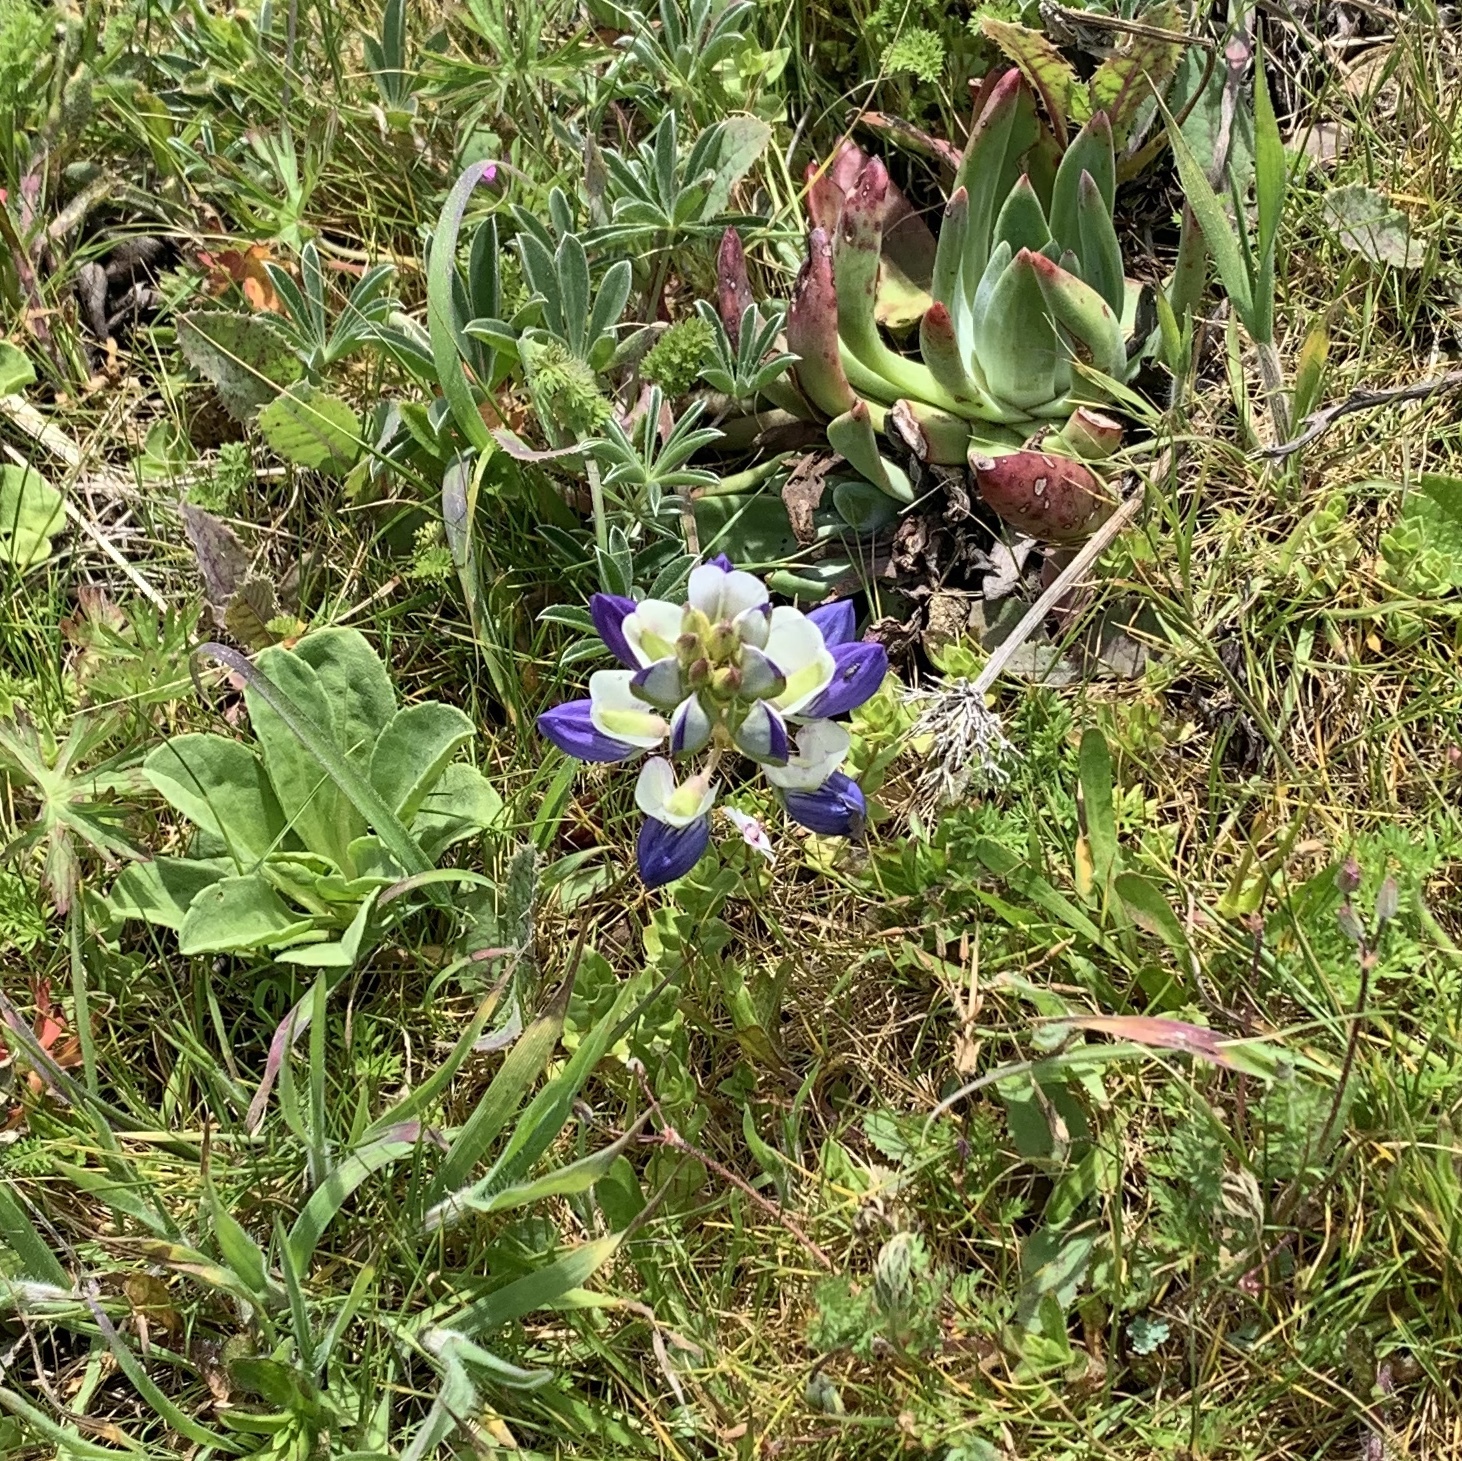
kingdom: Plantae
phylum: Tracheophyta
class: Magnoliopsida
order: Fabales
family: Fabaceae
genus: Lupinus
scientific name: Lupinus variicolor
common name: Lindley's varied lupine
